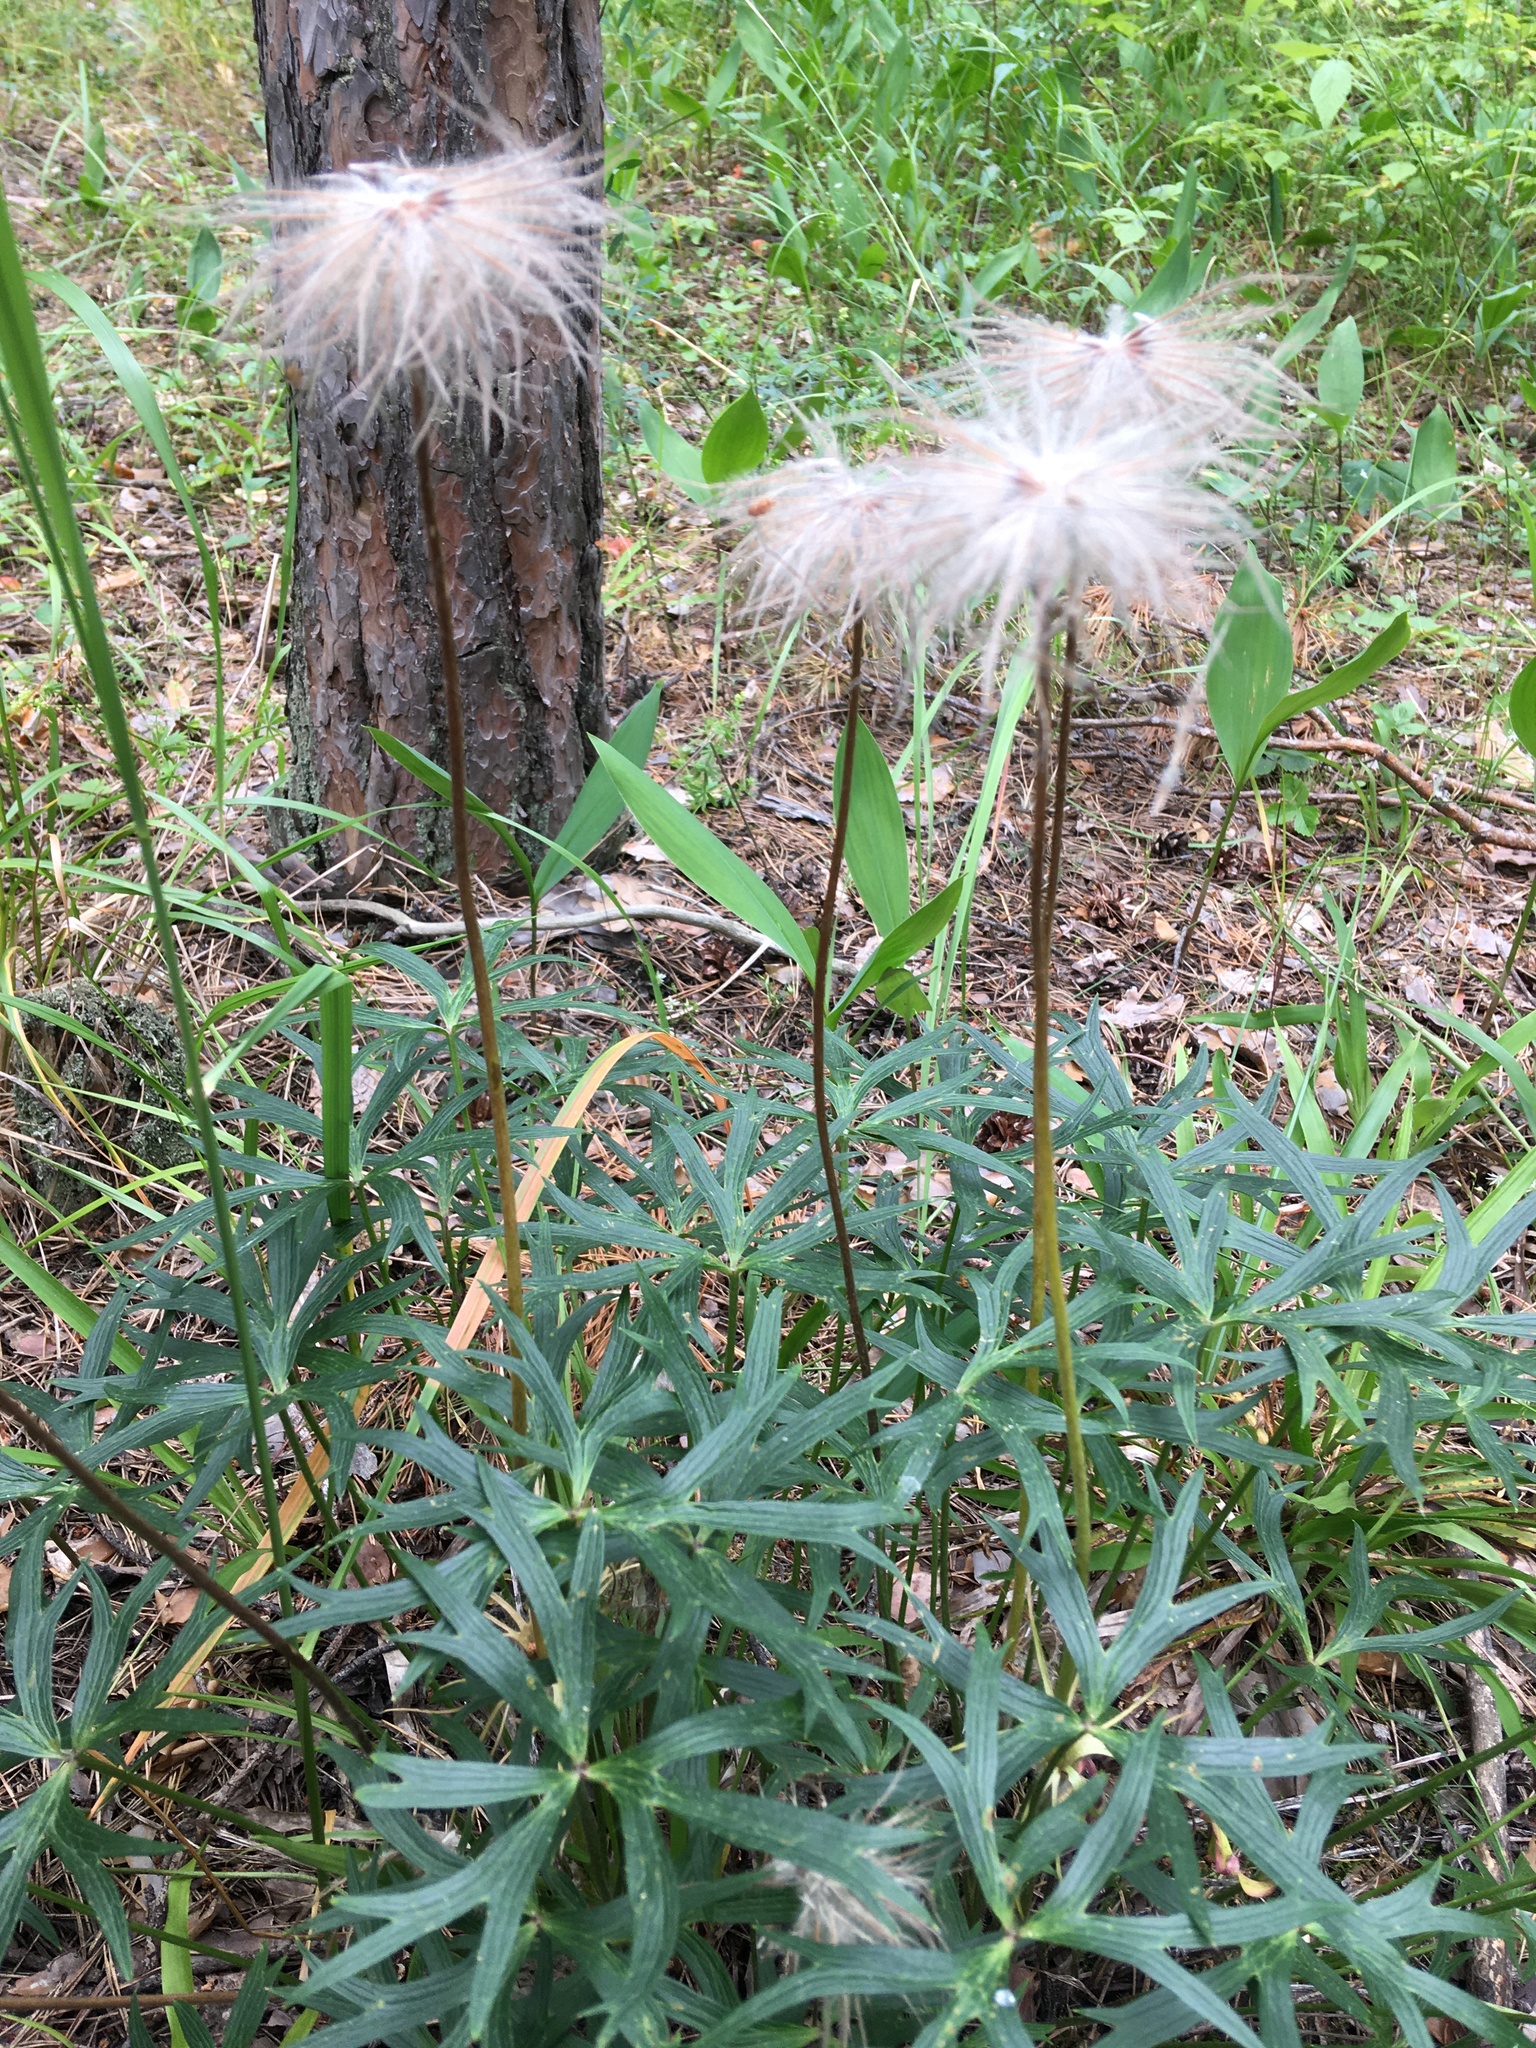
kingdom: Plantae
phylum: Tracheophyta
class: Magnoliopsida
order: Ranunculales
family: Ranunculaceae
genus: Pulsatilla
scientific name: Pulsatilla patens
